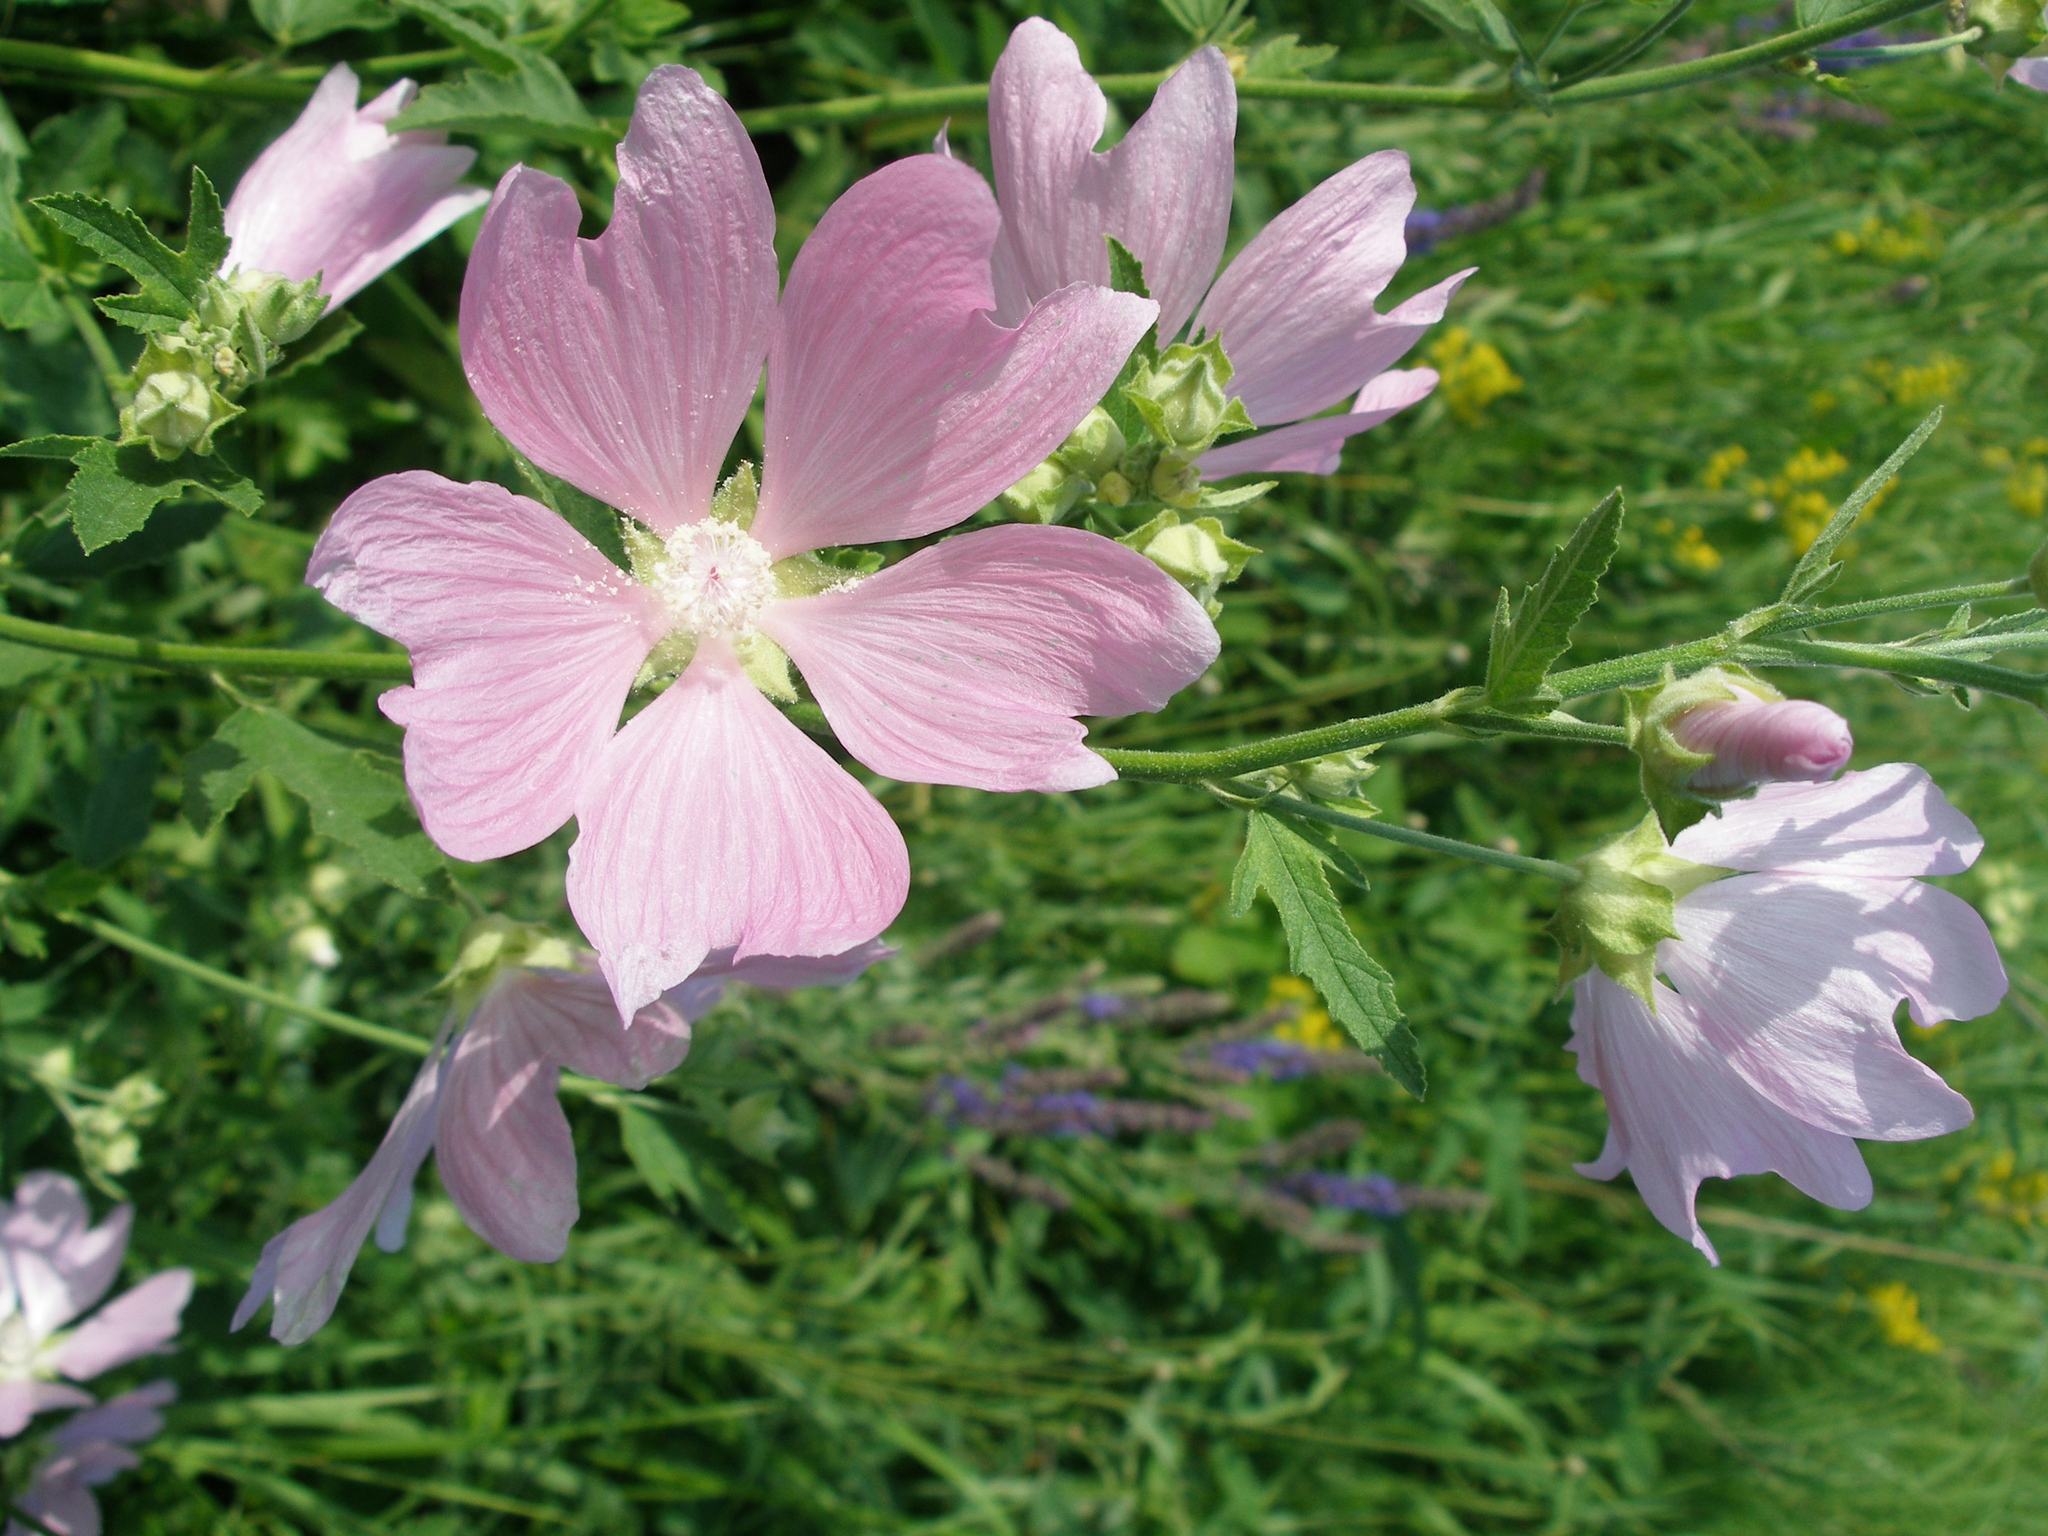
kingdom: Plantae
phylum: Tracheophyta
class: Magnoliopsida
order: Malvales
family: Malvaceae
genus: Malva
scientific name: Malva thuringiaca
